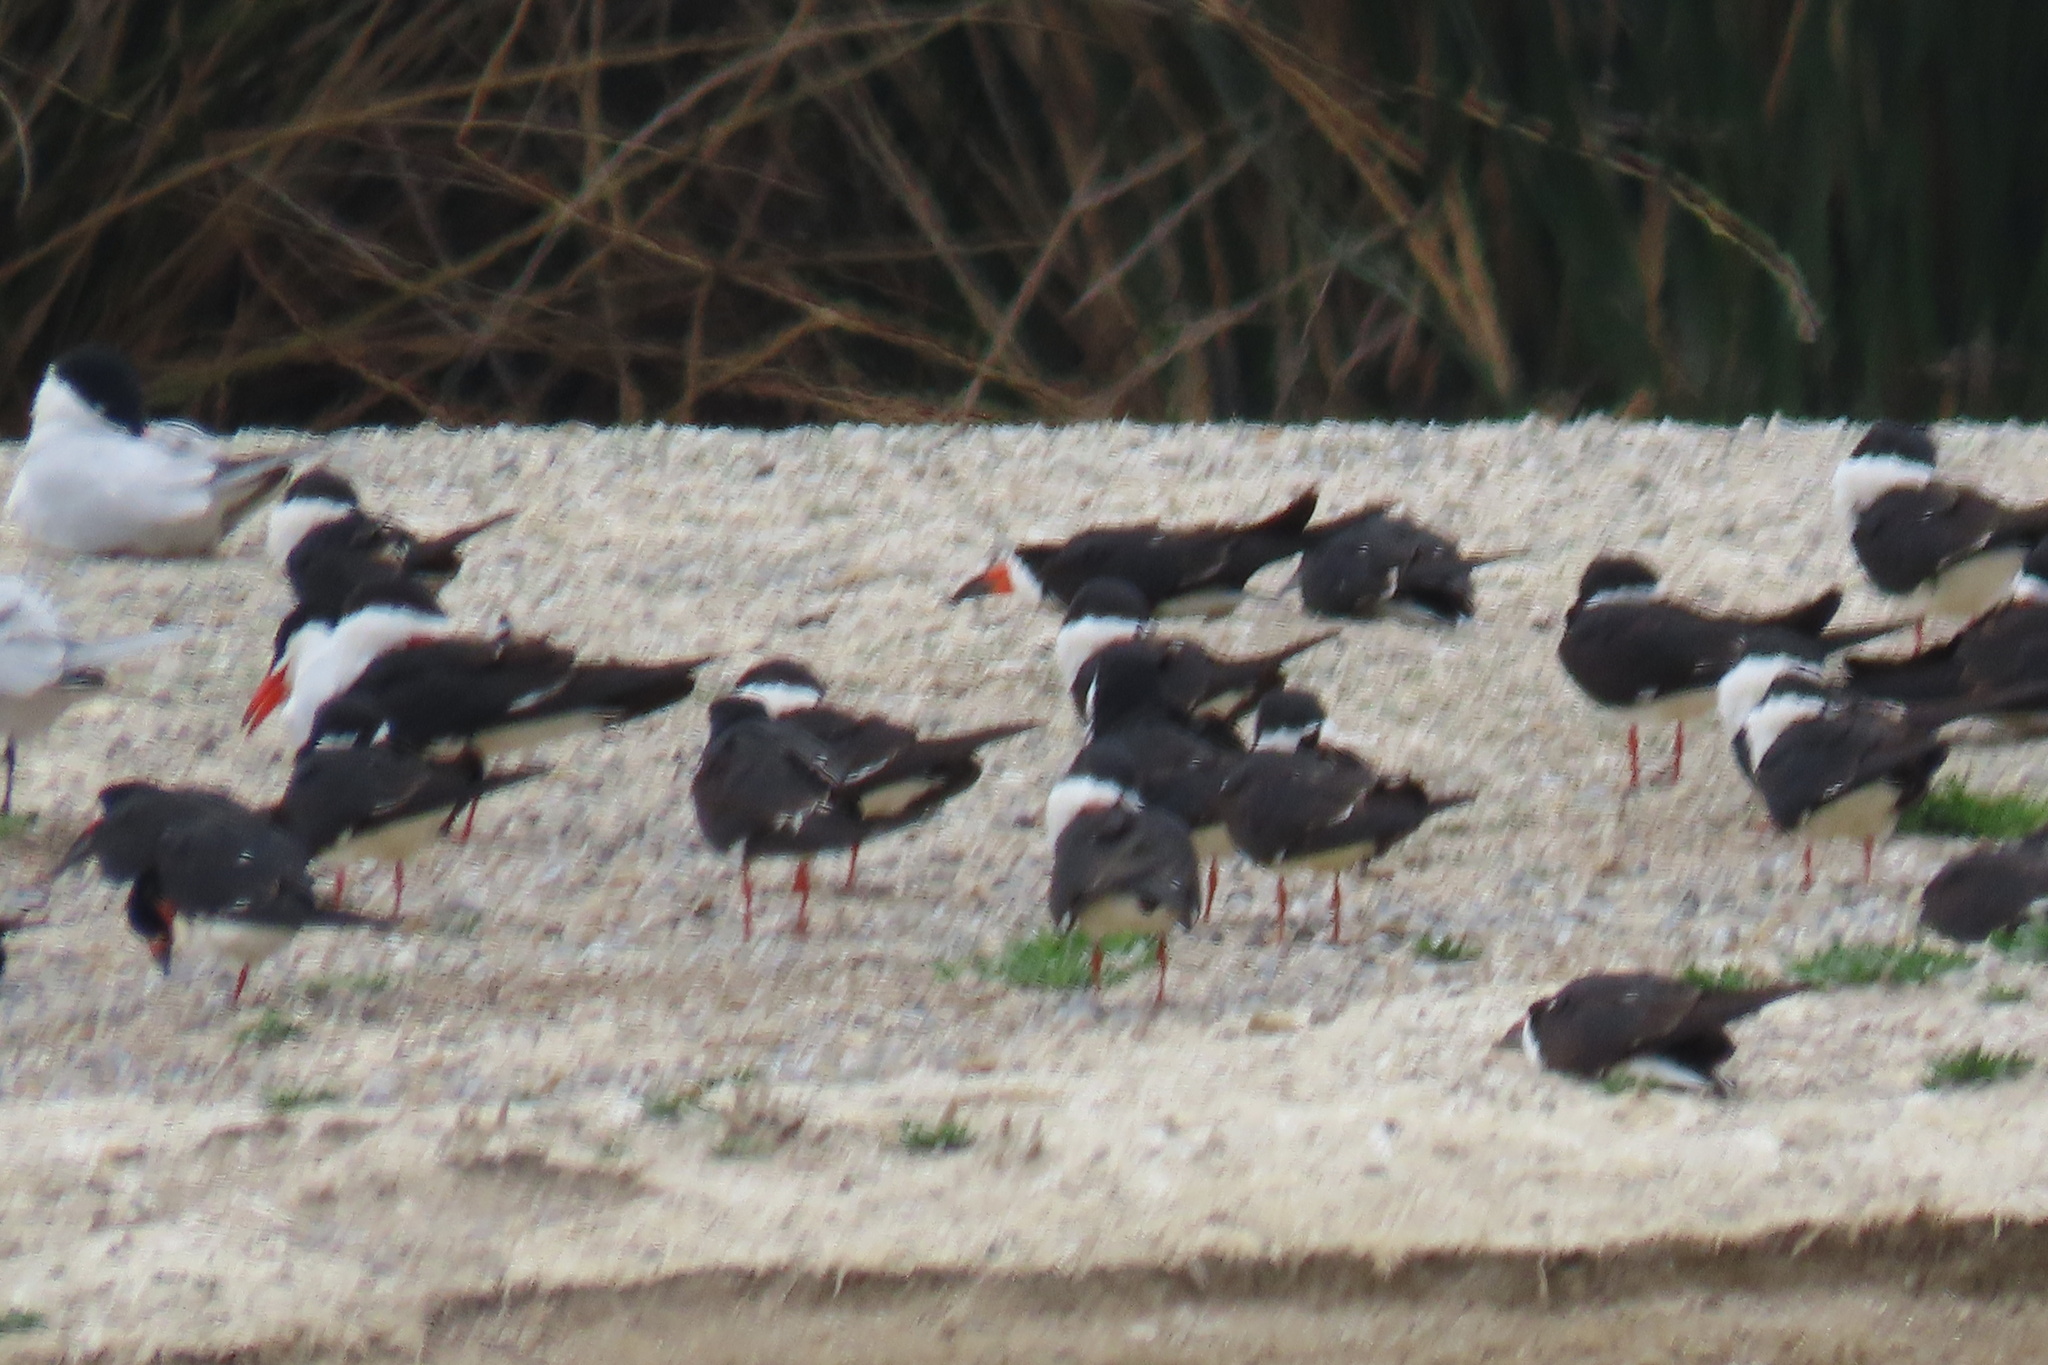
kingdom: Animalia
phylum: Chordata
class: Aves
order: Charadriiformes
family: Laridae
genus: Rynchops
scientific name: Rynchops niger
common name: Black skimmer
